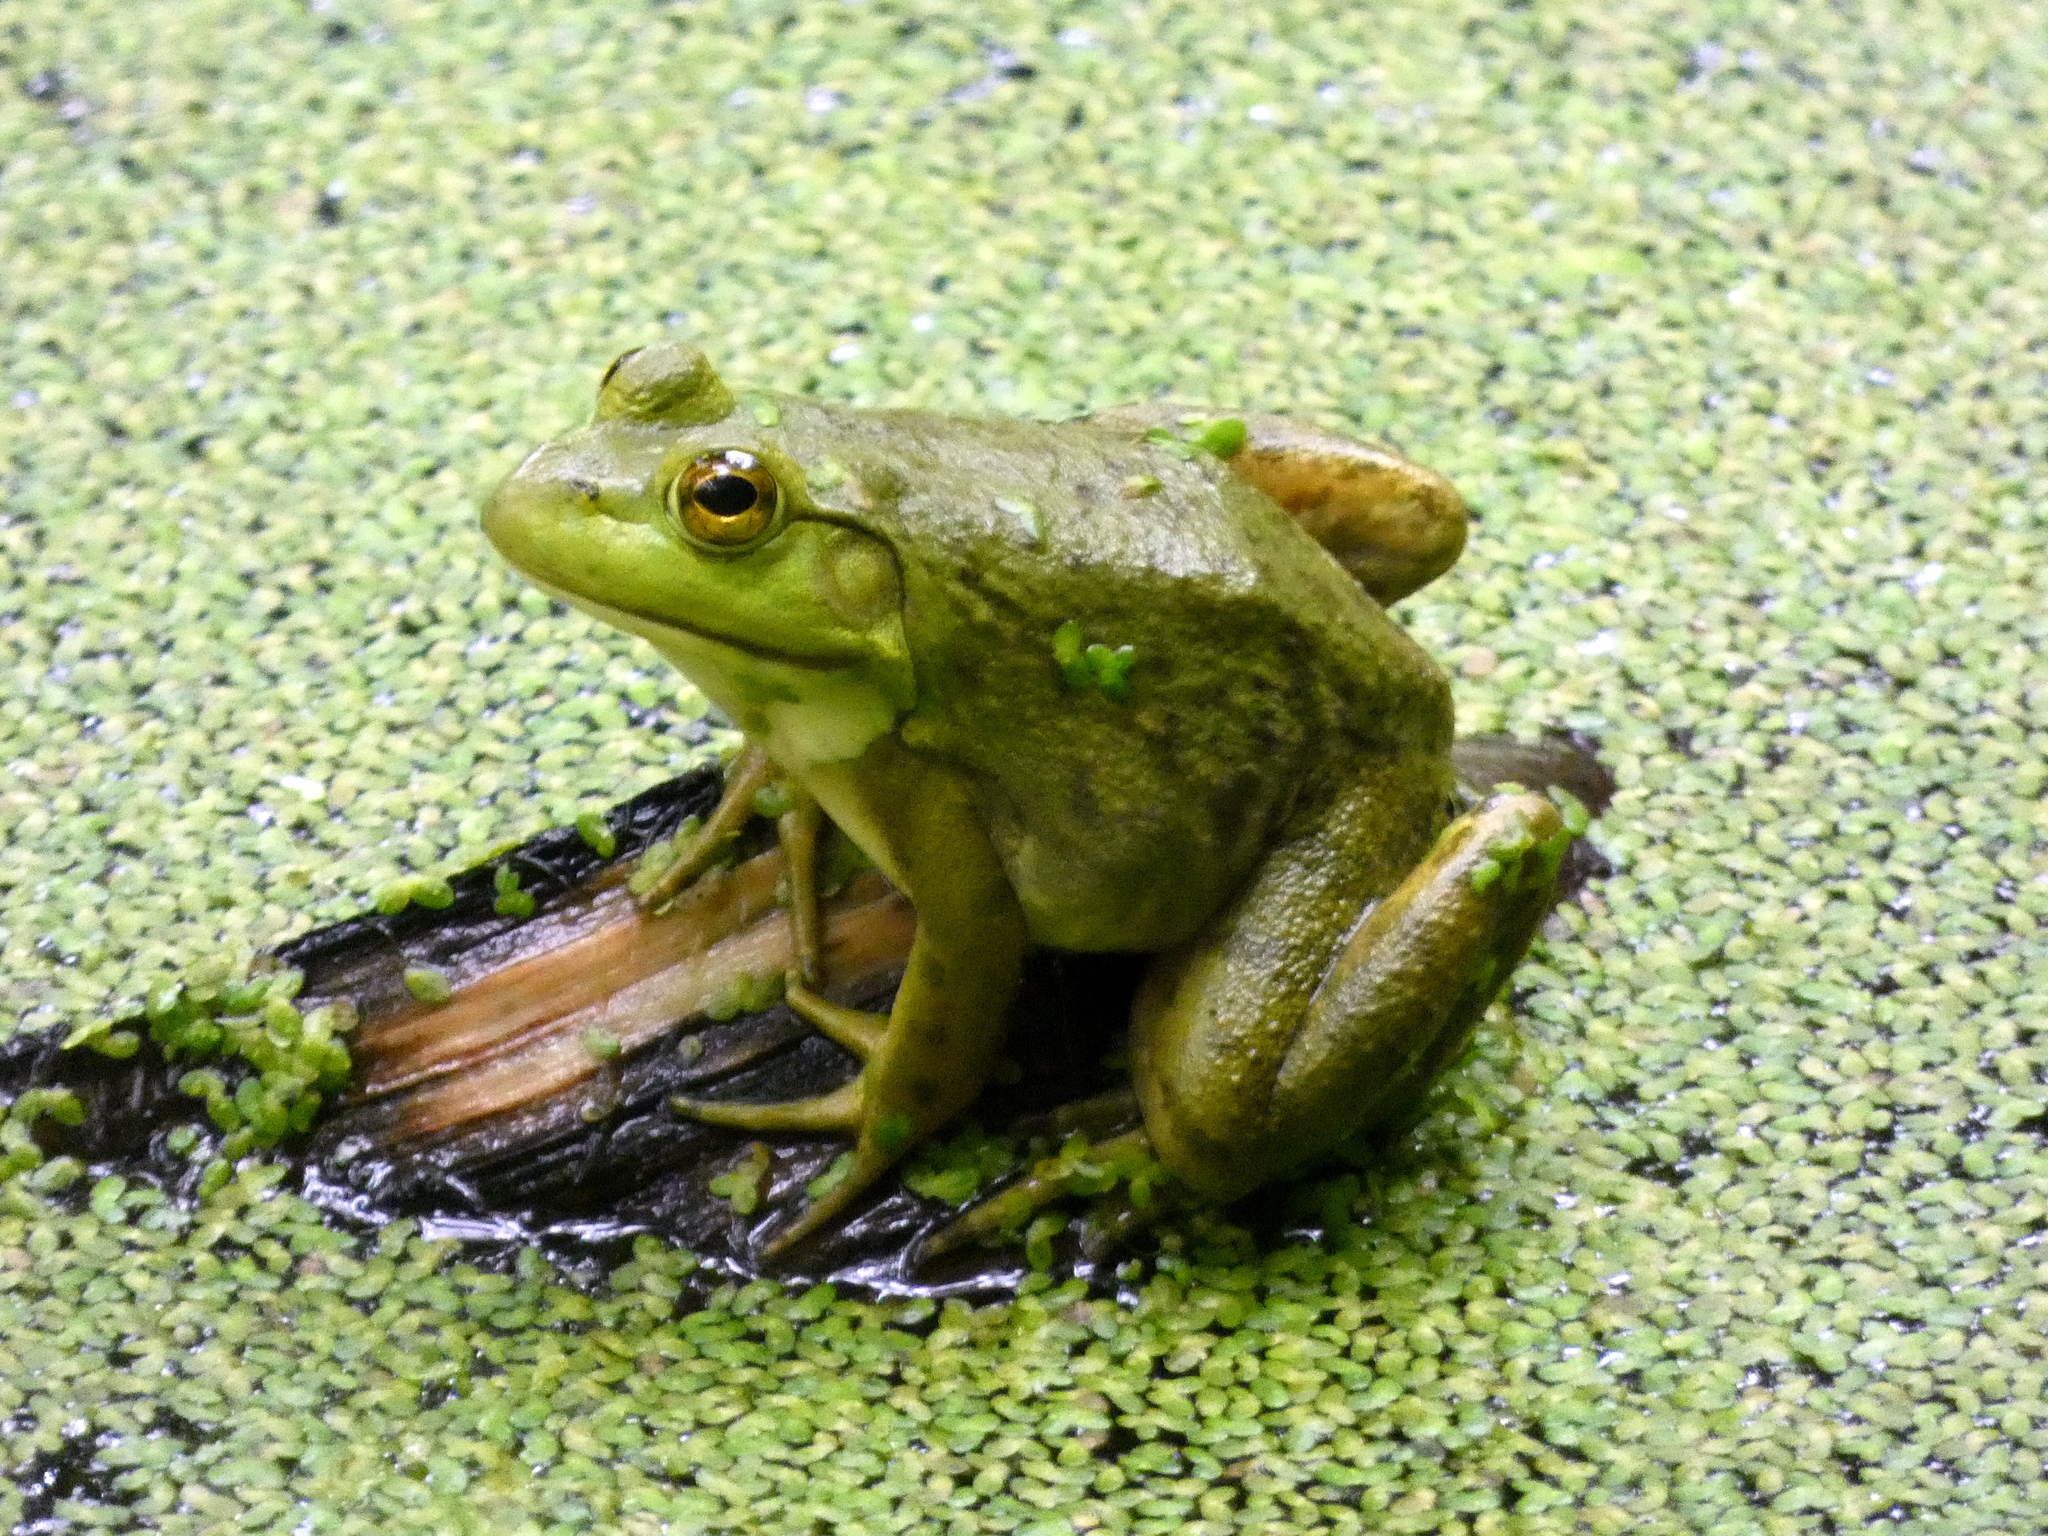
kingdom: Animalia
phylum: Chordata
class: Amphibia
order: Anura
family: Ranidae
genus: Lithobates
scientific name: Lithobates catesbeianus
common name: American bullfrog
